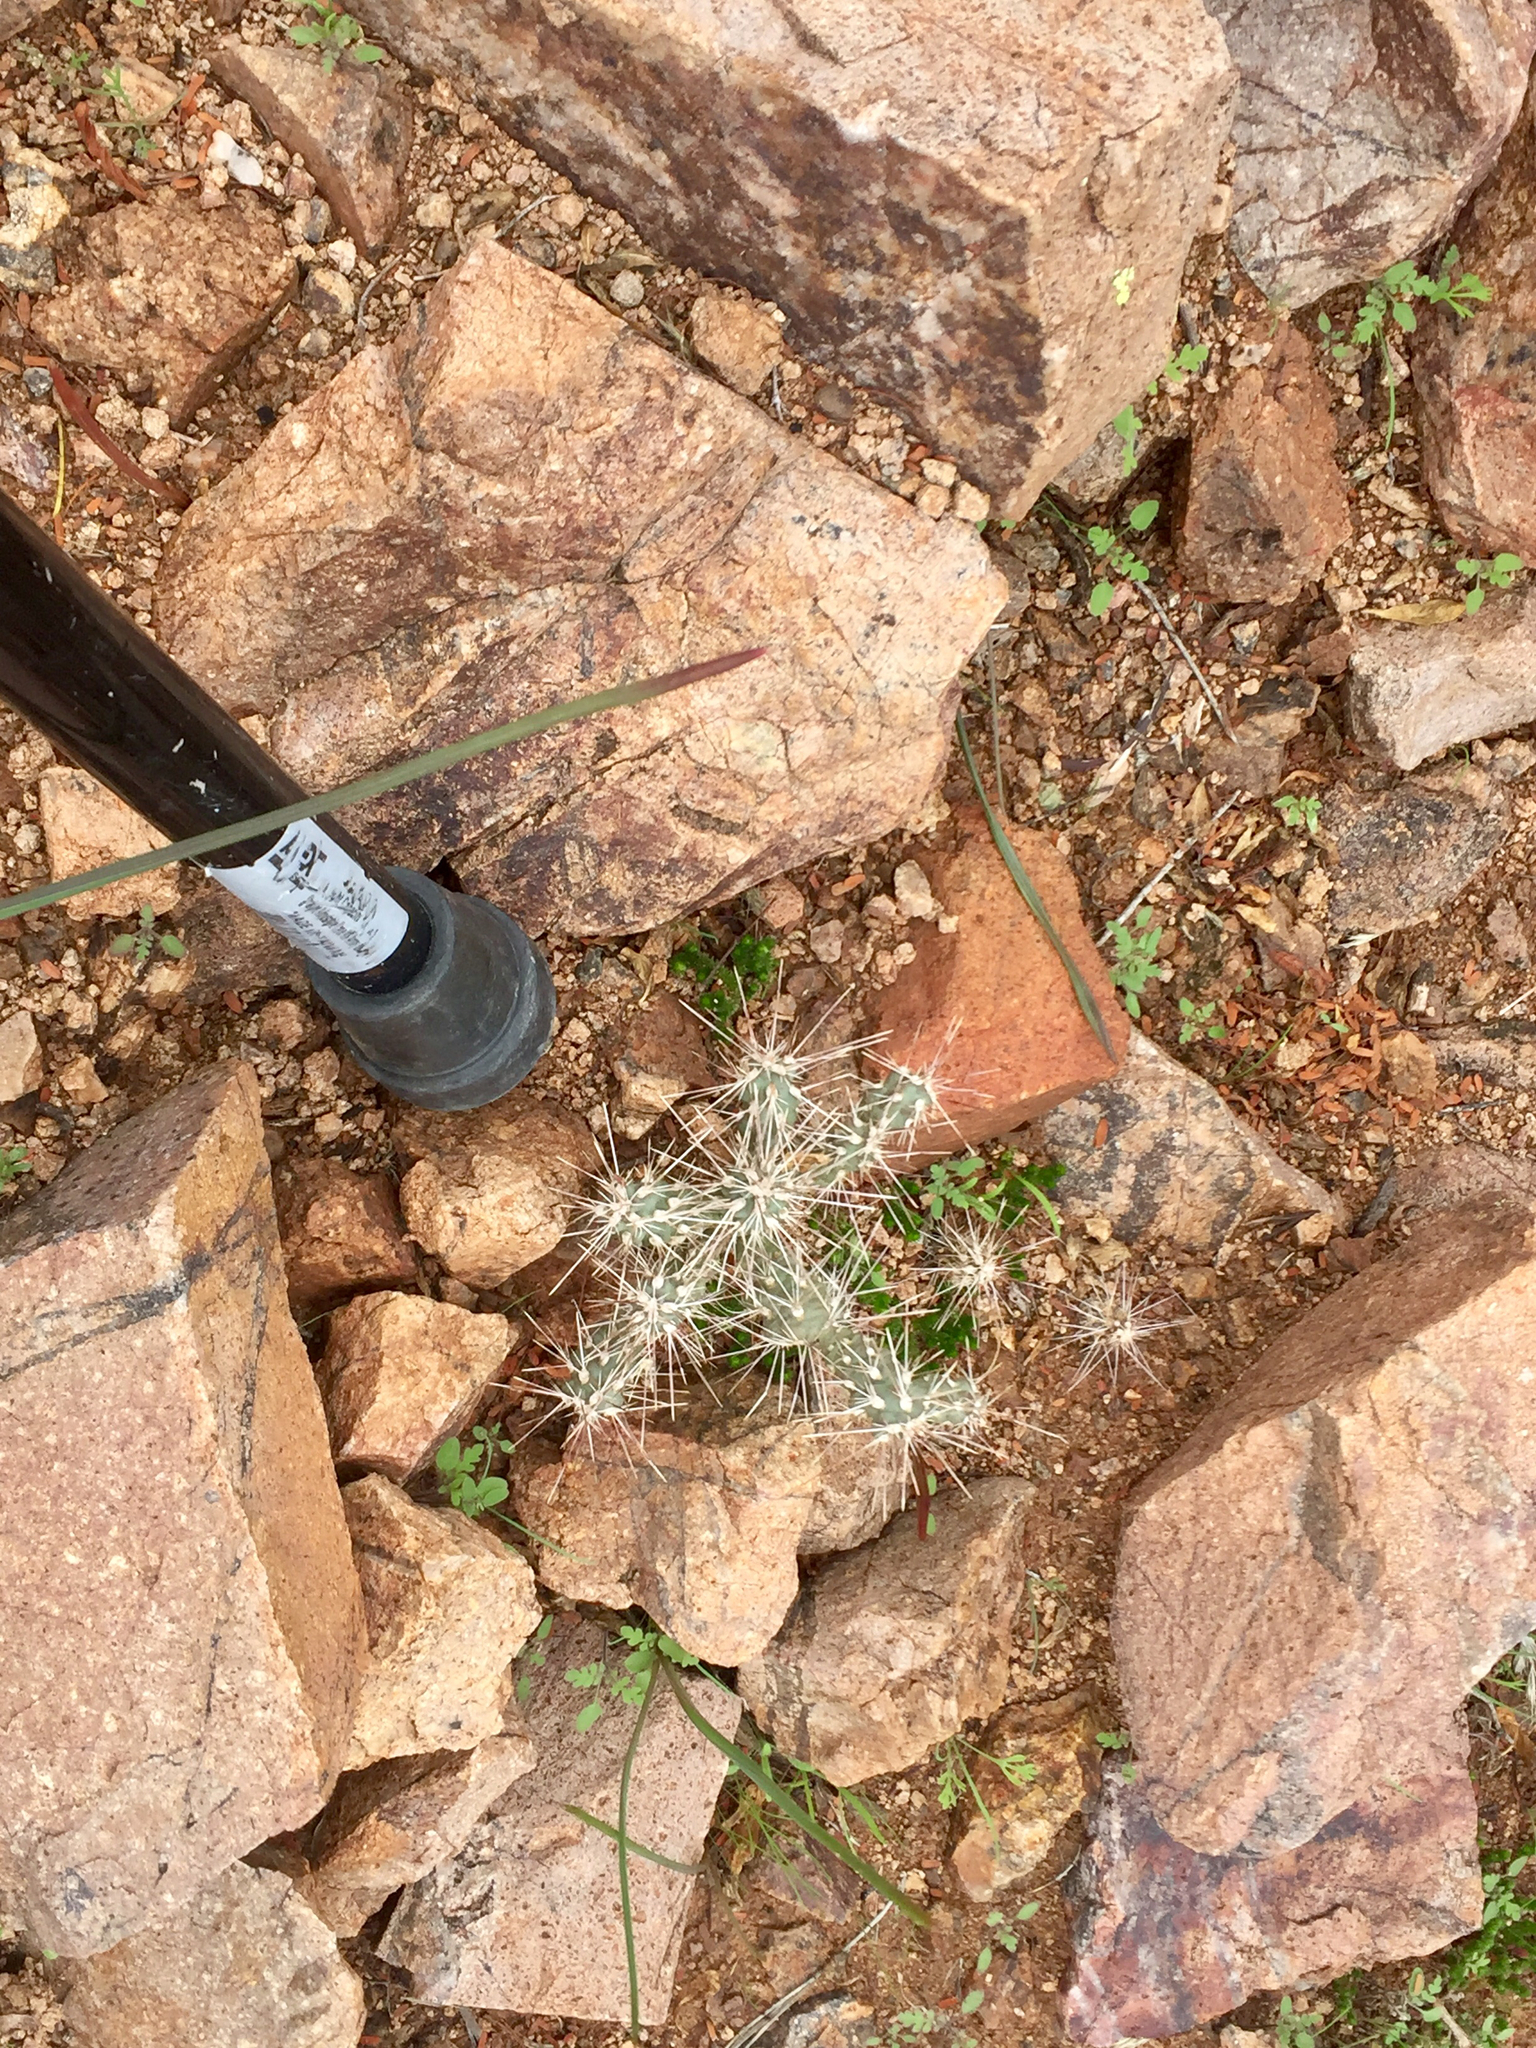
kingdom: Plantae
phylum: Tracheophyta
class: Magnoliopsida
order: Caryophyllales
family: Cactaceae
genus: Cylindropuntia
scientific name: Cylindropuntia fulgida
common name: Jumping cholla
